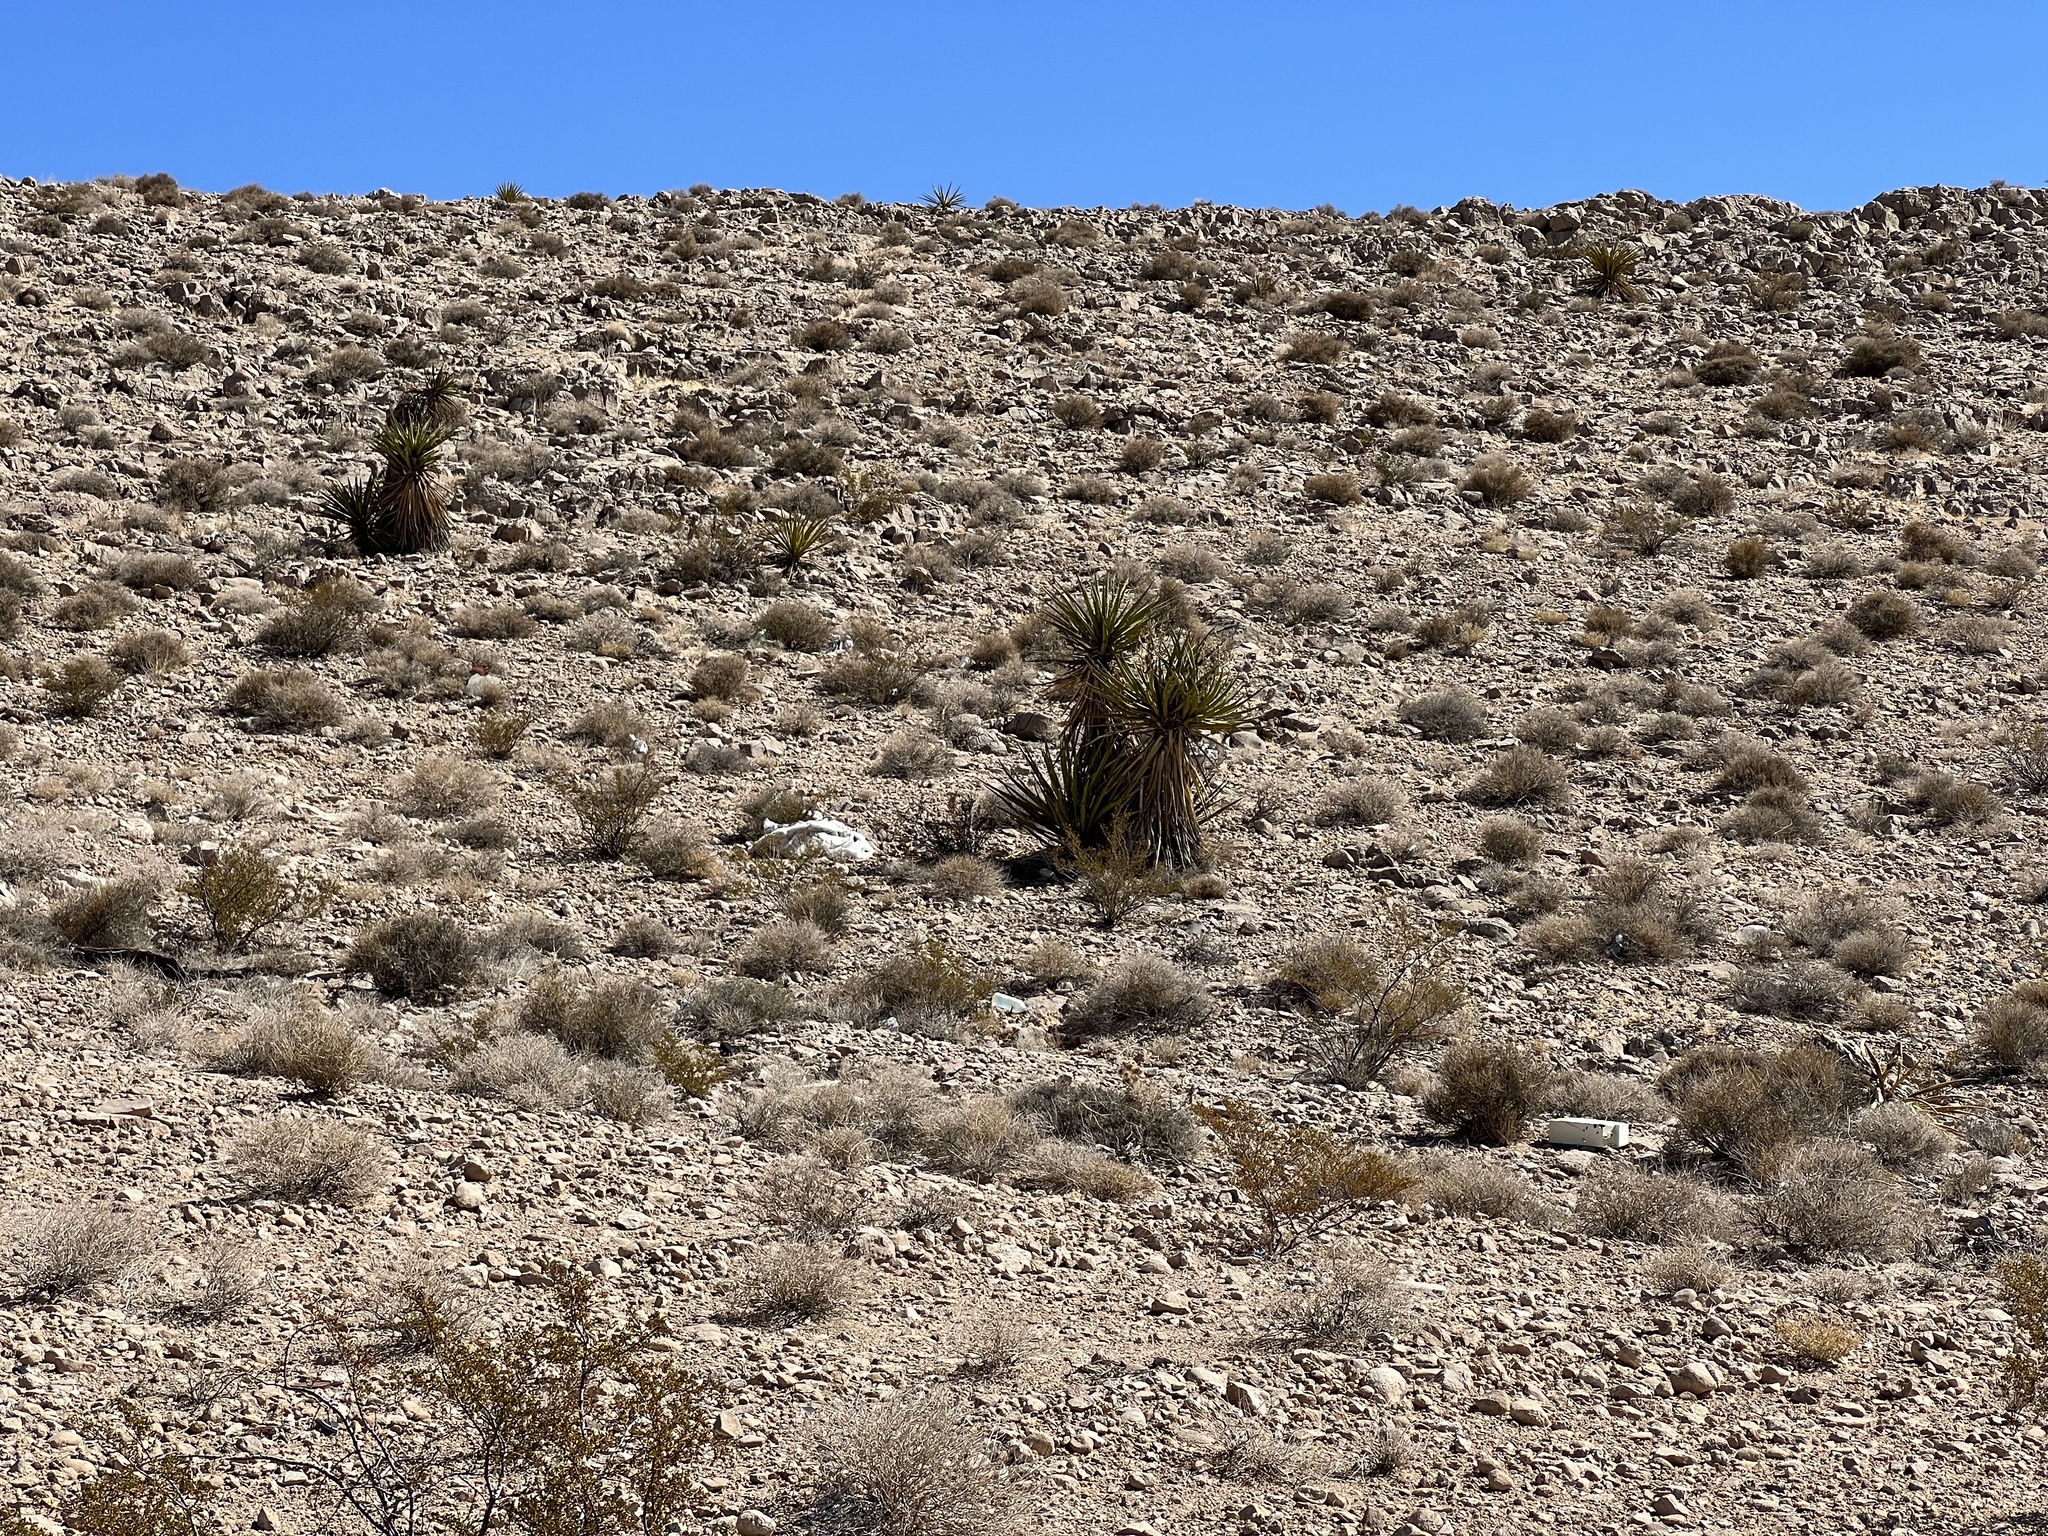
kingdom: Plantae
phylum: Tracheophyta
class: Liliopsida
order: Asparagales
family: Asparagaceae
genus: Yucca
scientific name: Yucca schidigera
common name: Mojave yucca
